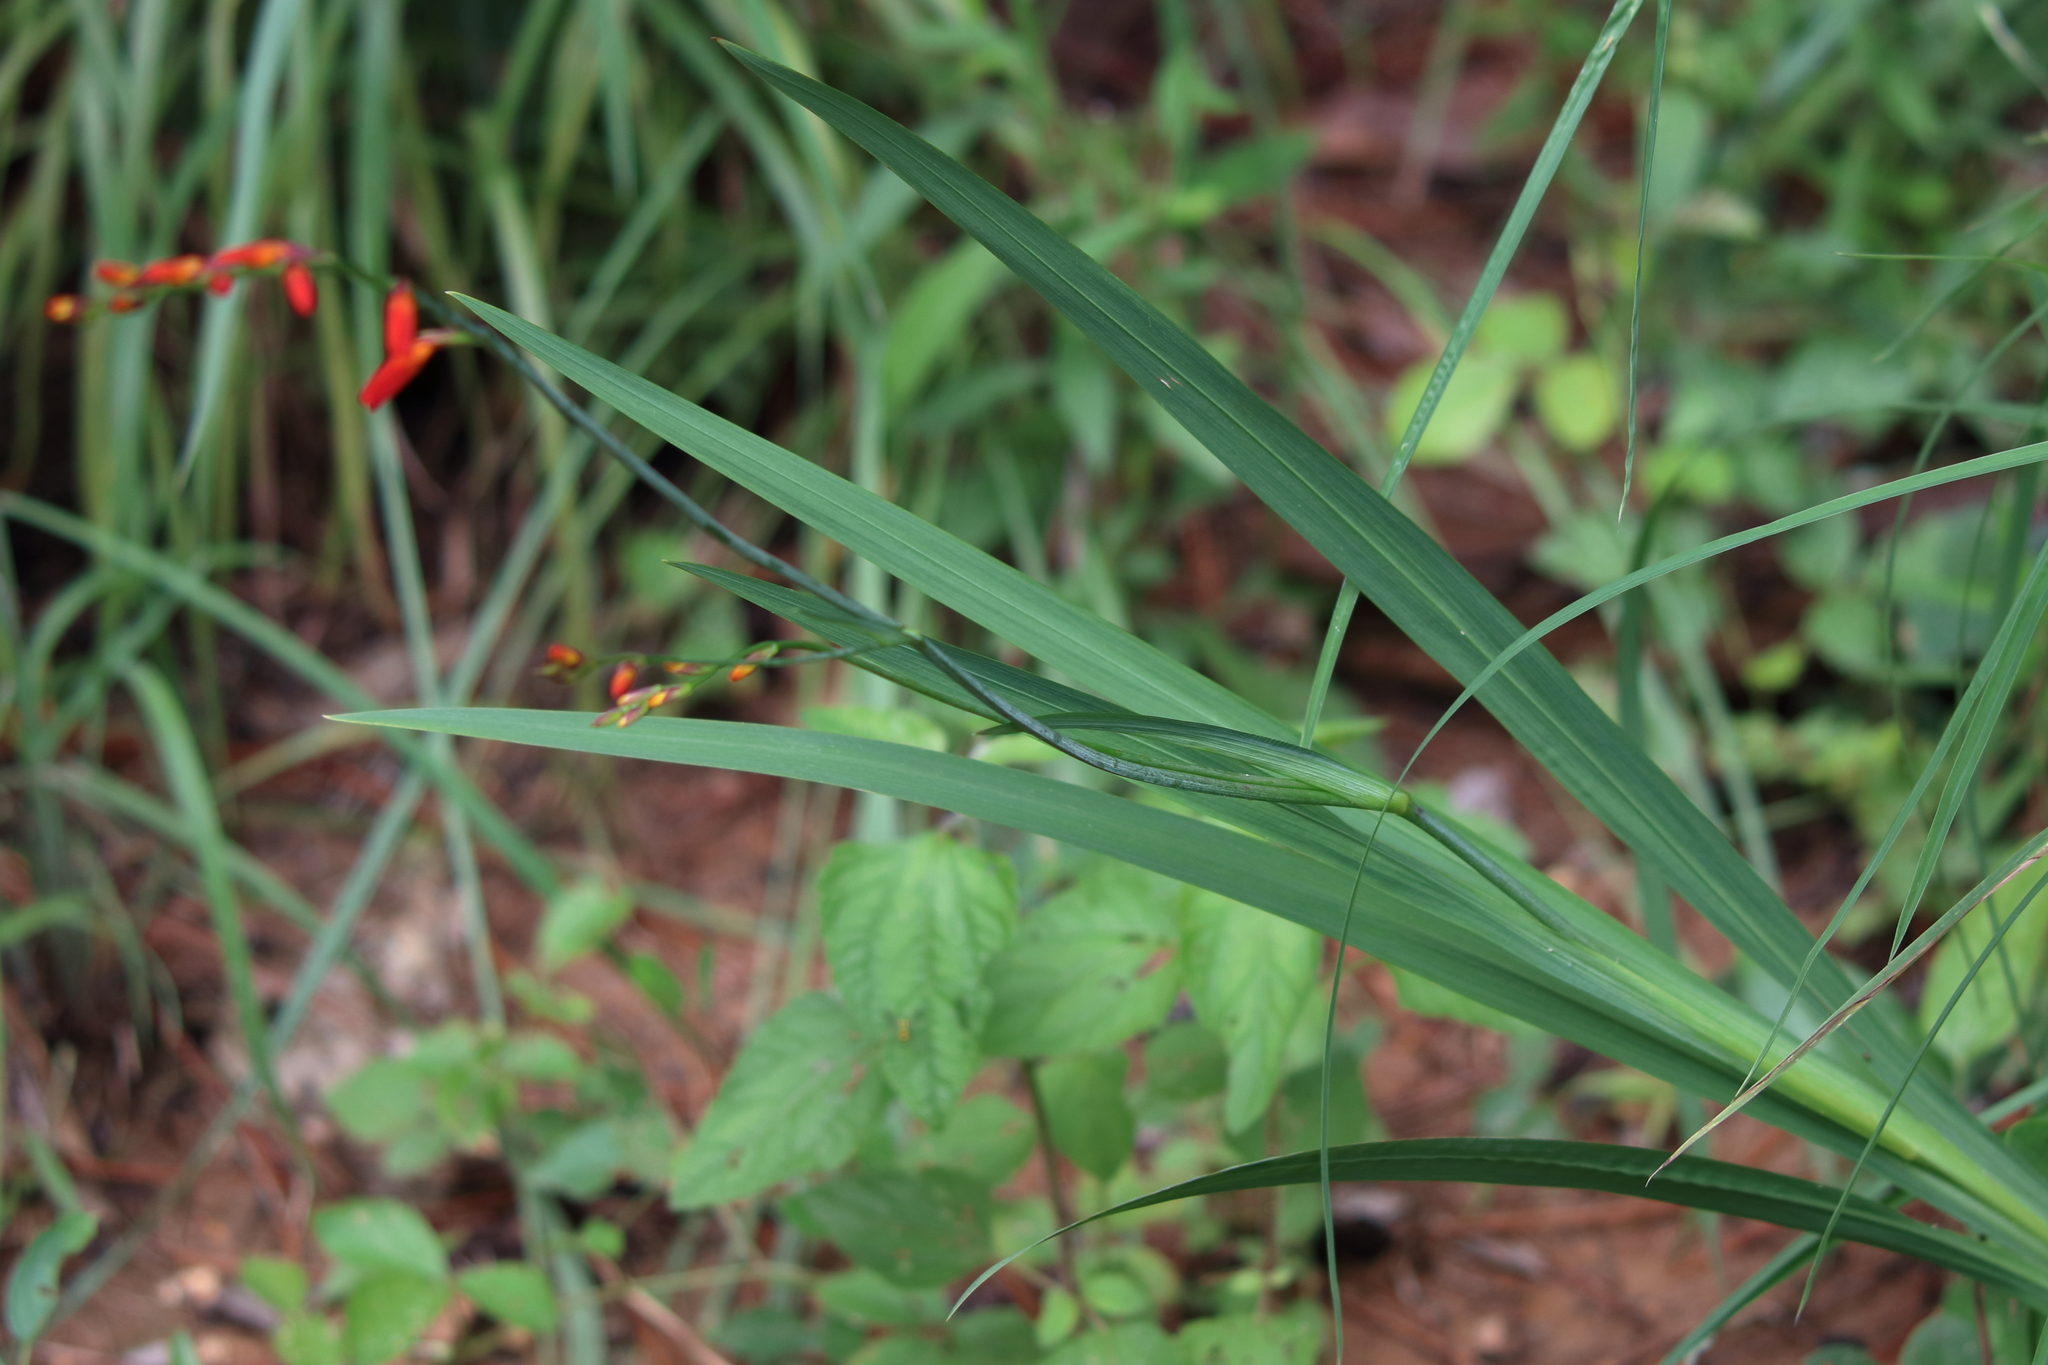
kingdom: Plantae
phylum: Tracheophyta
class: Liliopsida
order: Asparagales
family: Iridaceae
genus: Crocosmia
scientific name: Crocosmia crocosmiiflora
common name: Montbretia
